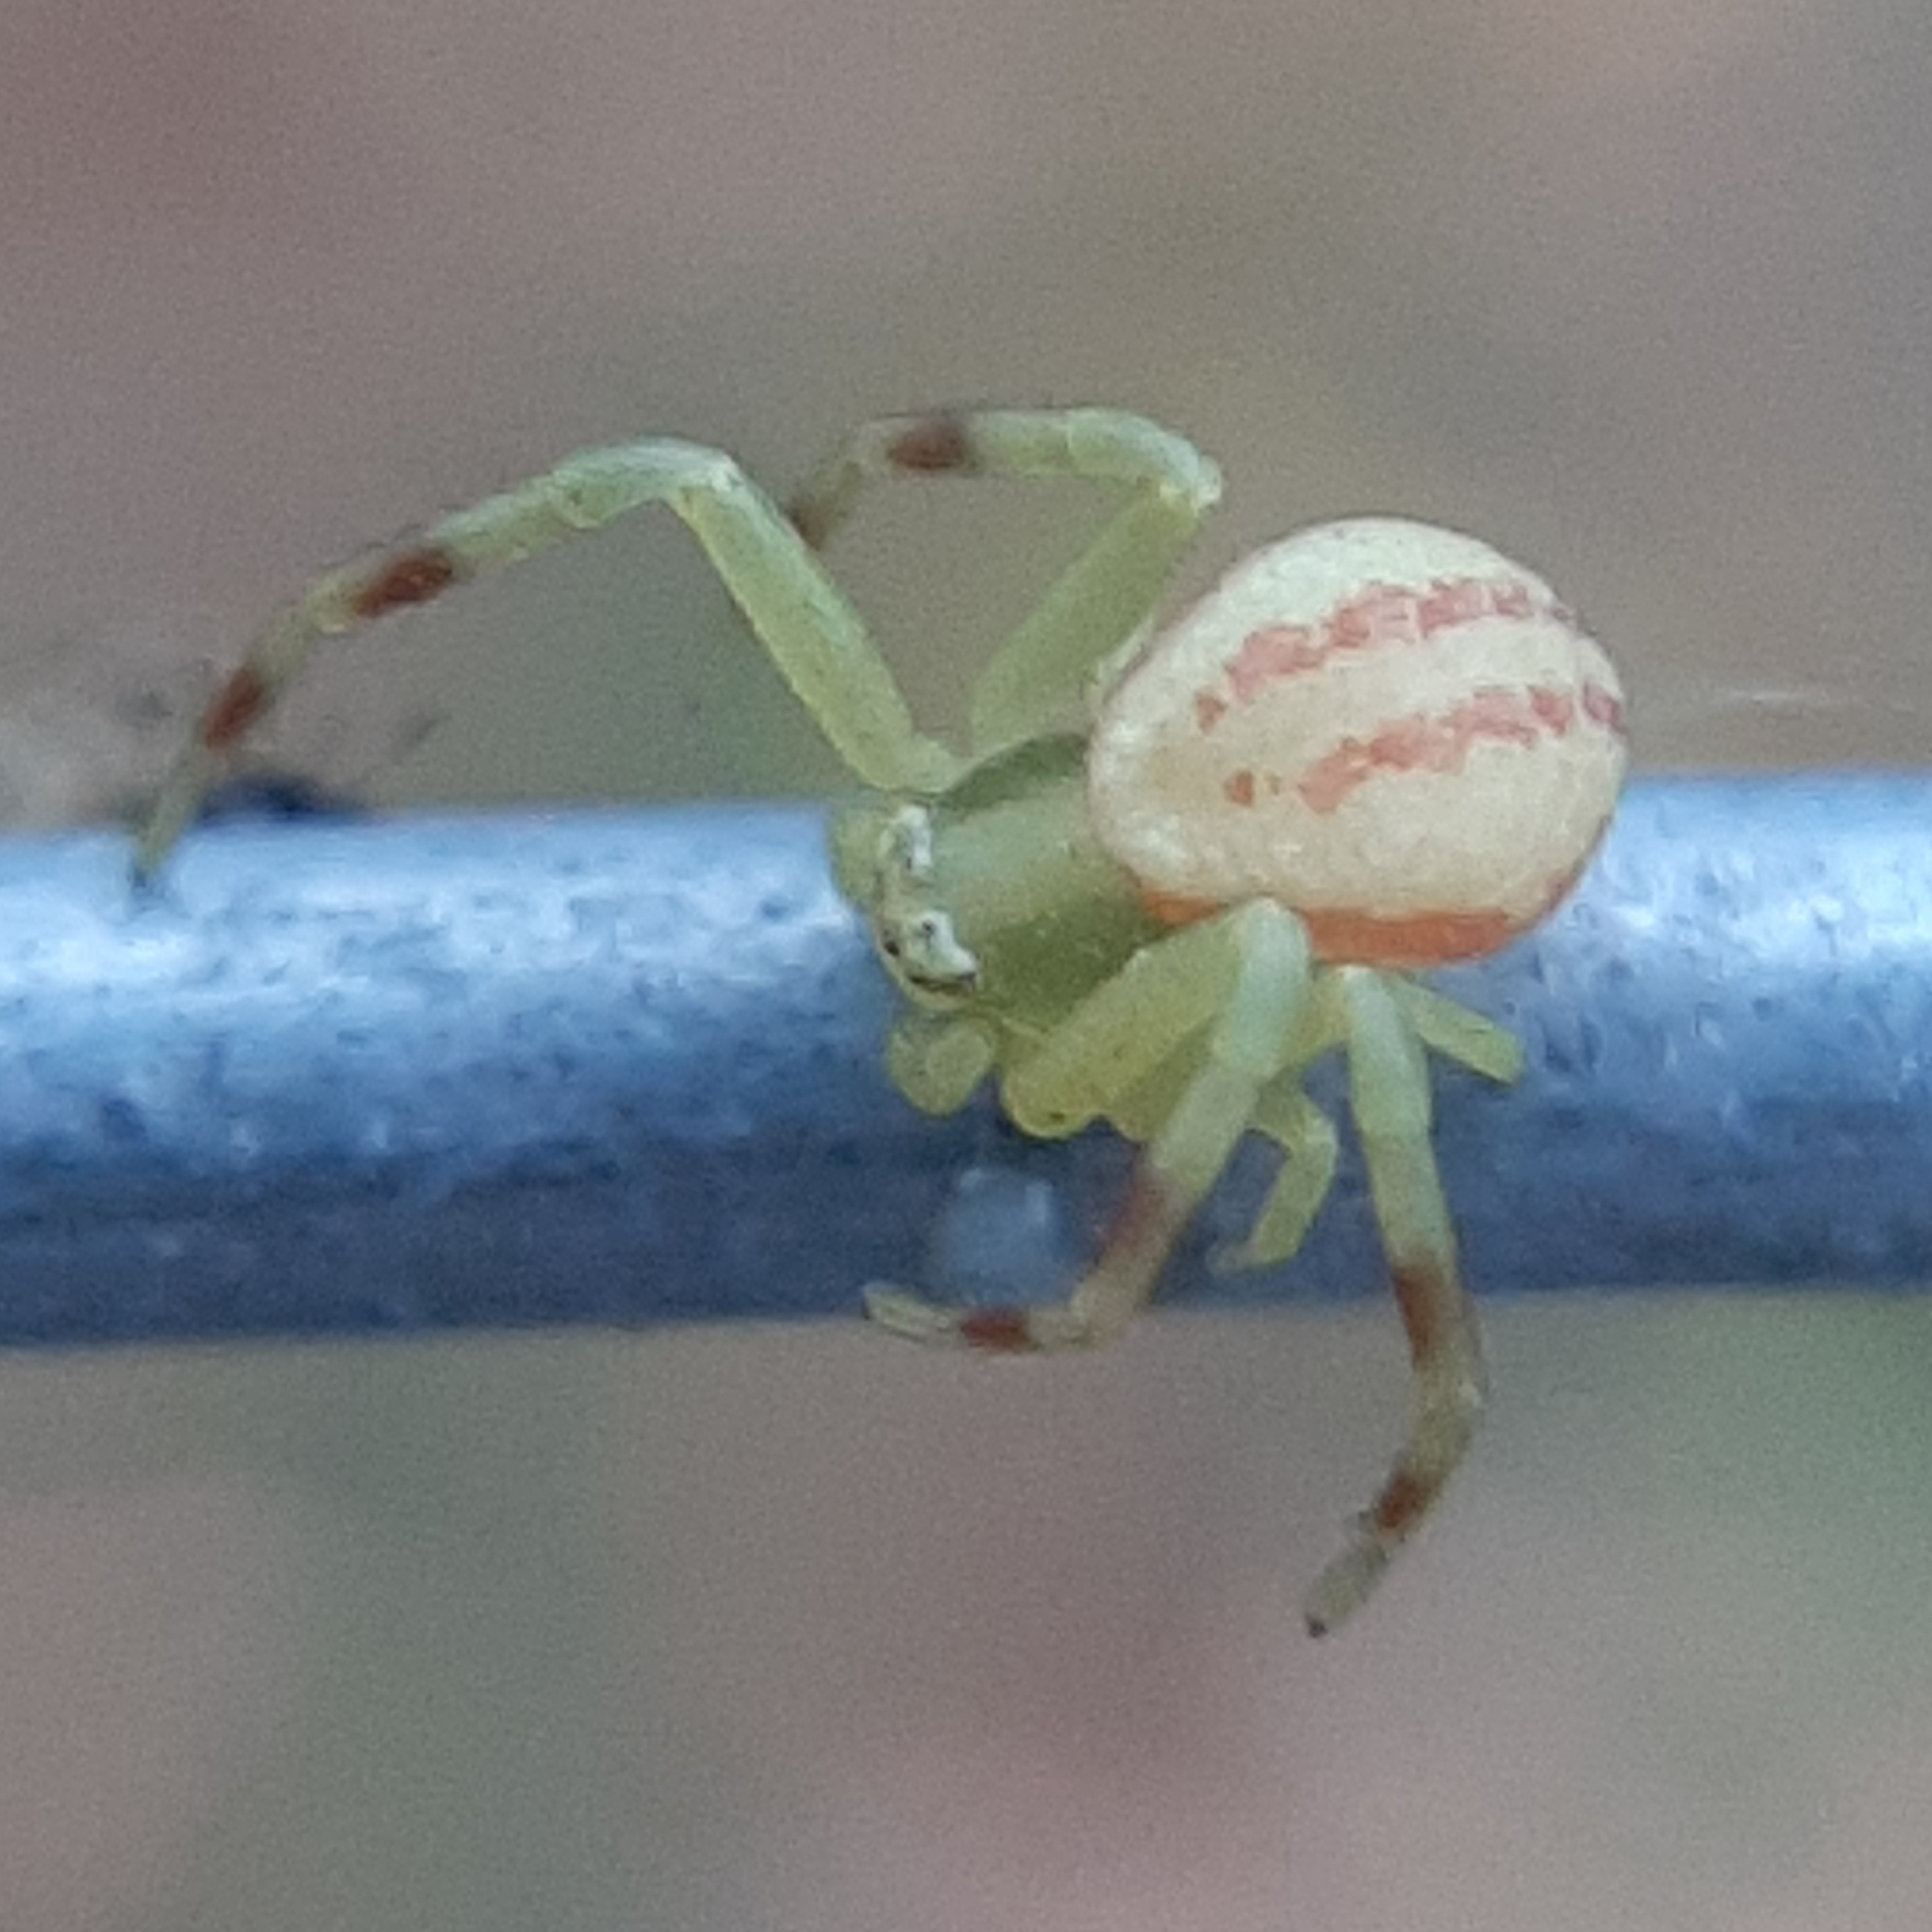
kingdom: Animalia
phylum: Arthropoda
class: Arachnida
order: Araneae
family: Thomisidae
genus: Misumena
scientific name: Misumena vatia
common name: Goldenrod crab spider
